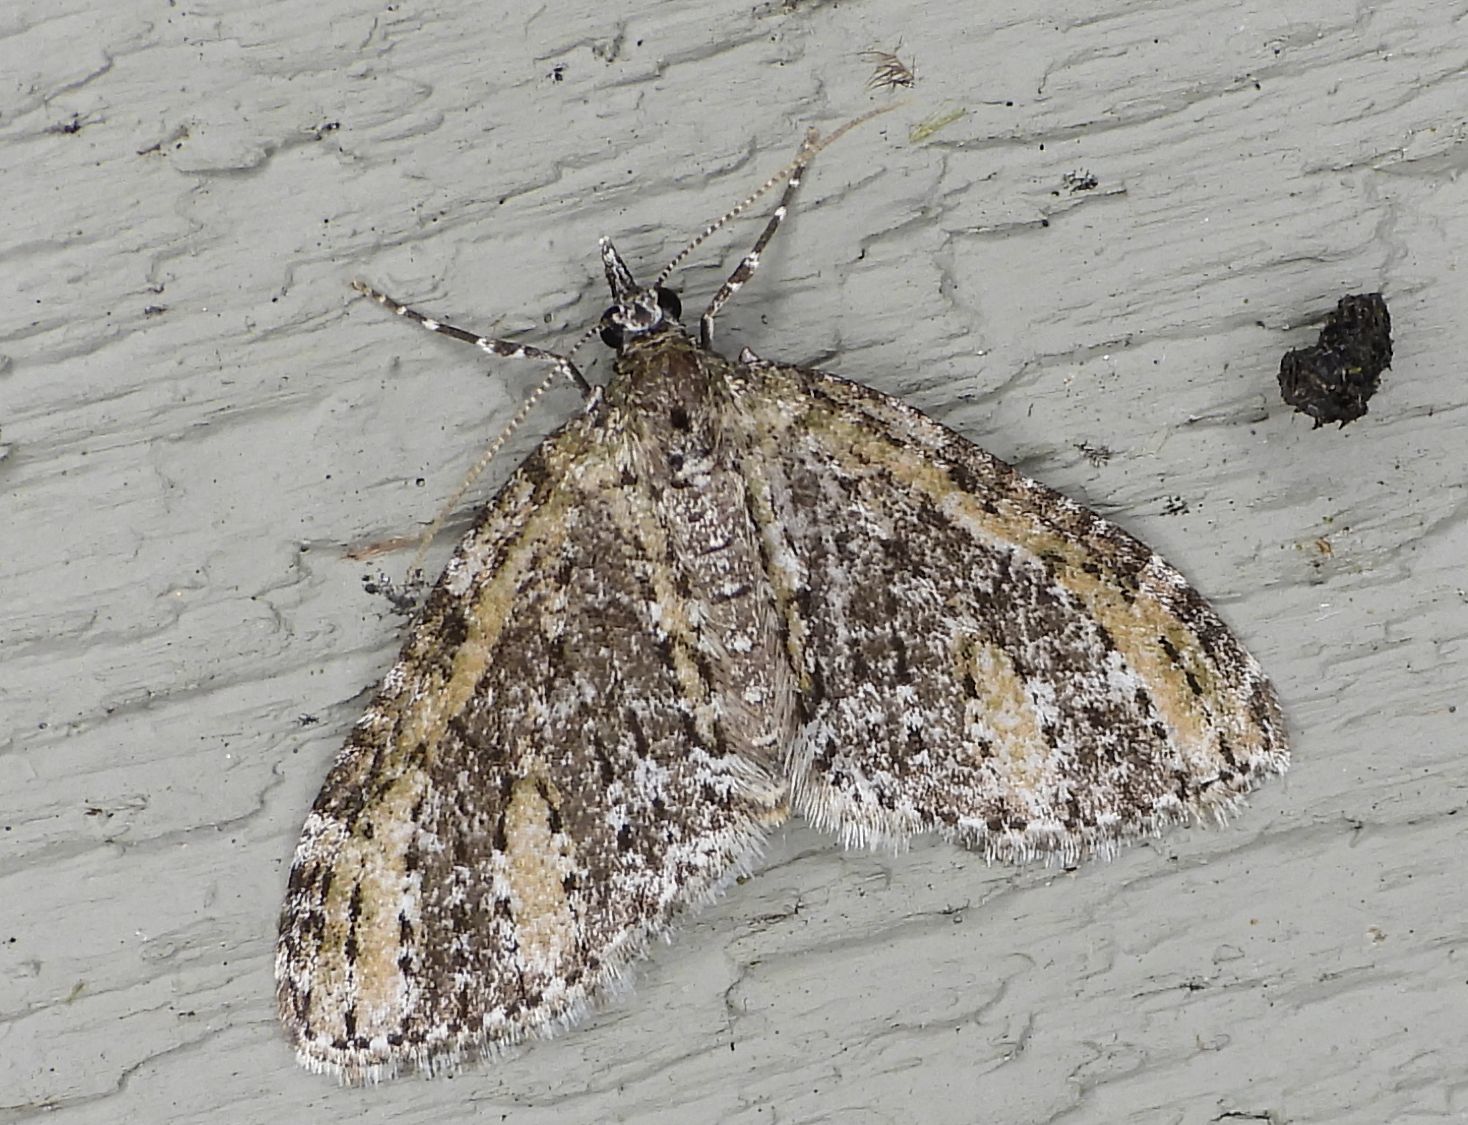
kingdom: Animalia
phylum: Arthropoda
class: Insecta
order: Lepidoptera
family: Geometridae
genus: Acasis
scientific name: Acasis viridata
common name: Olive-and-black carpet moth
